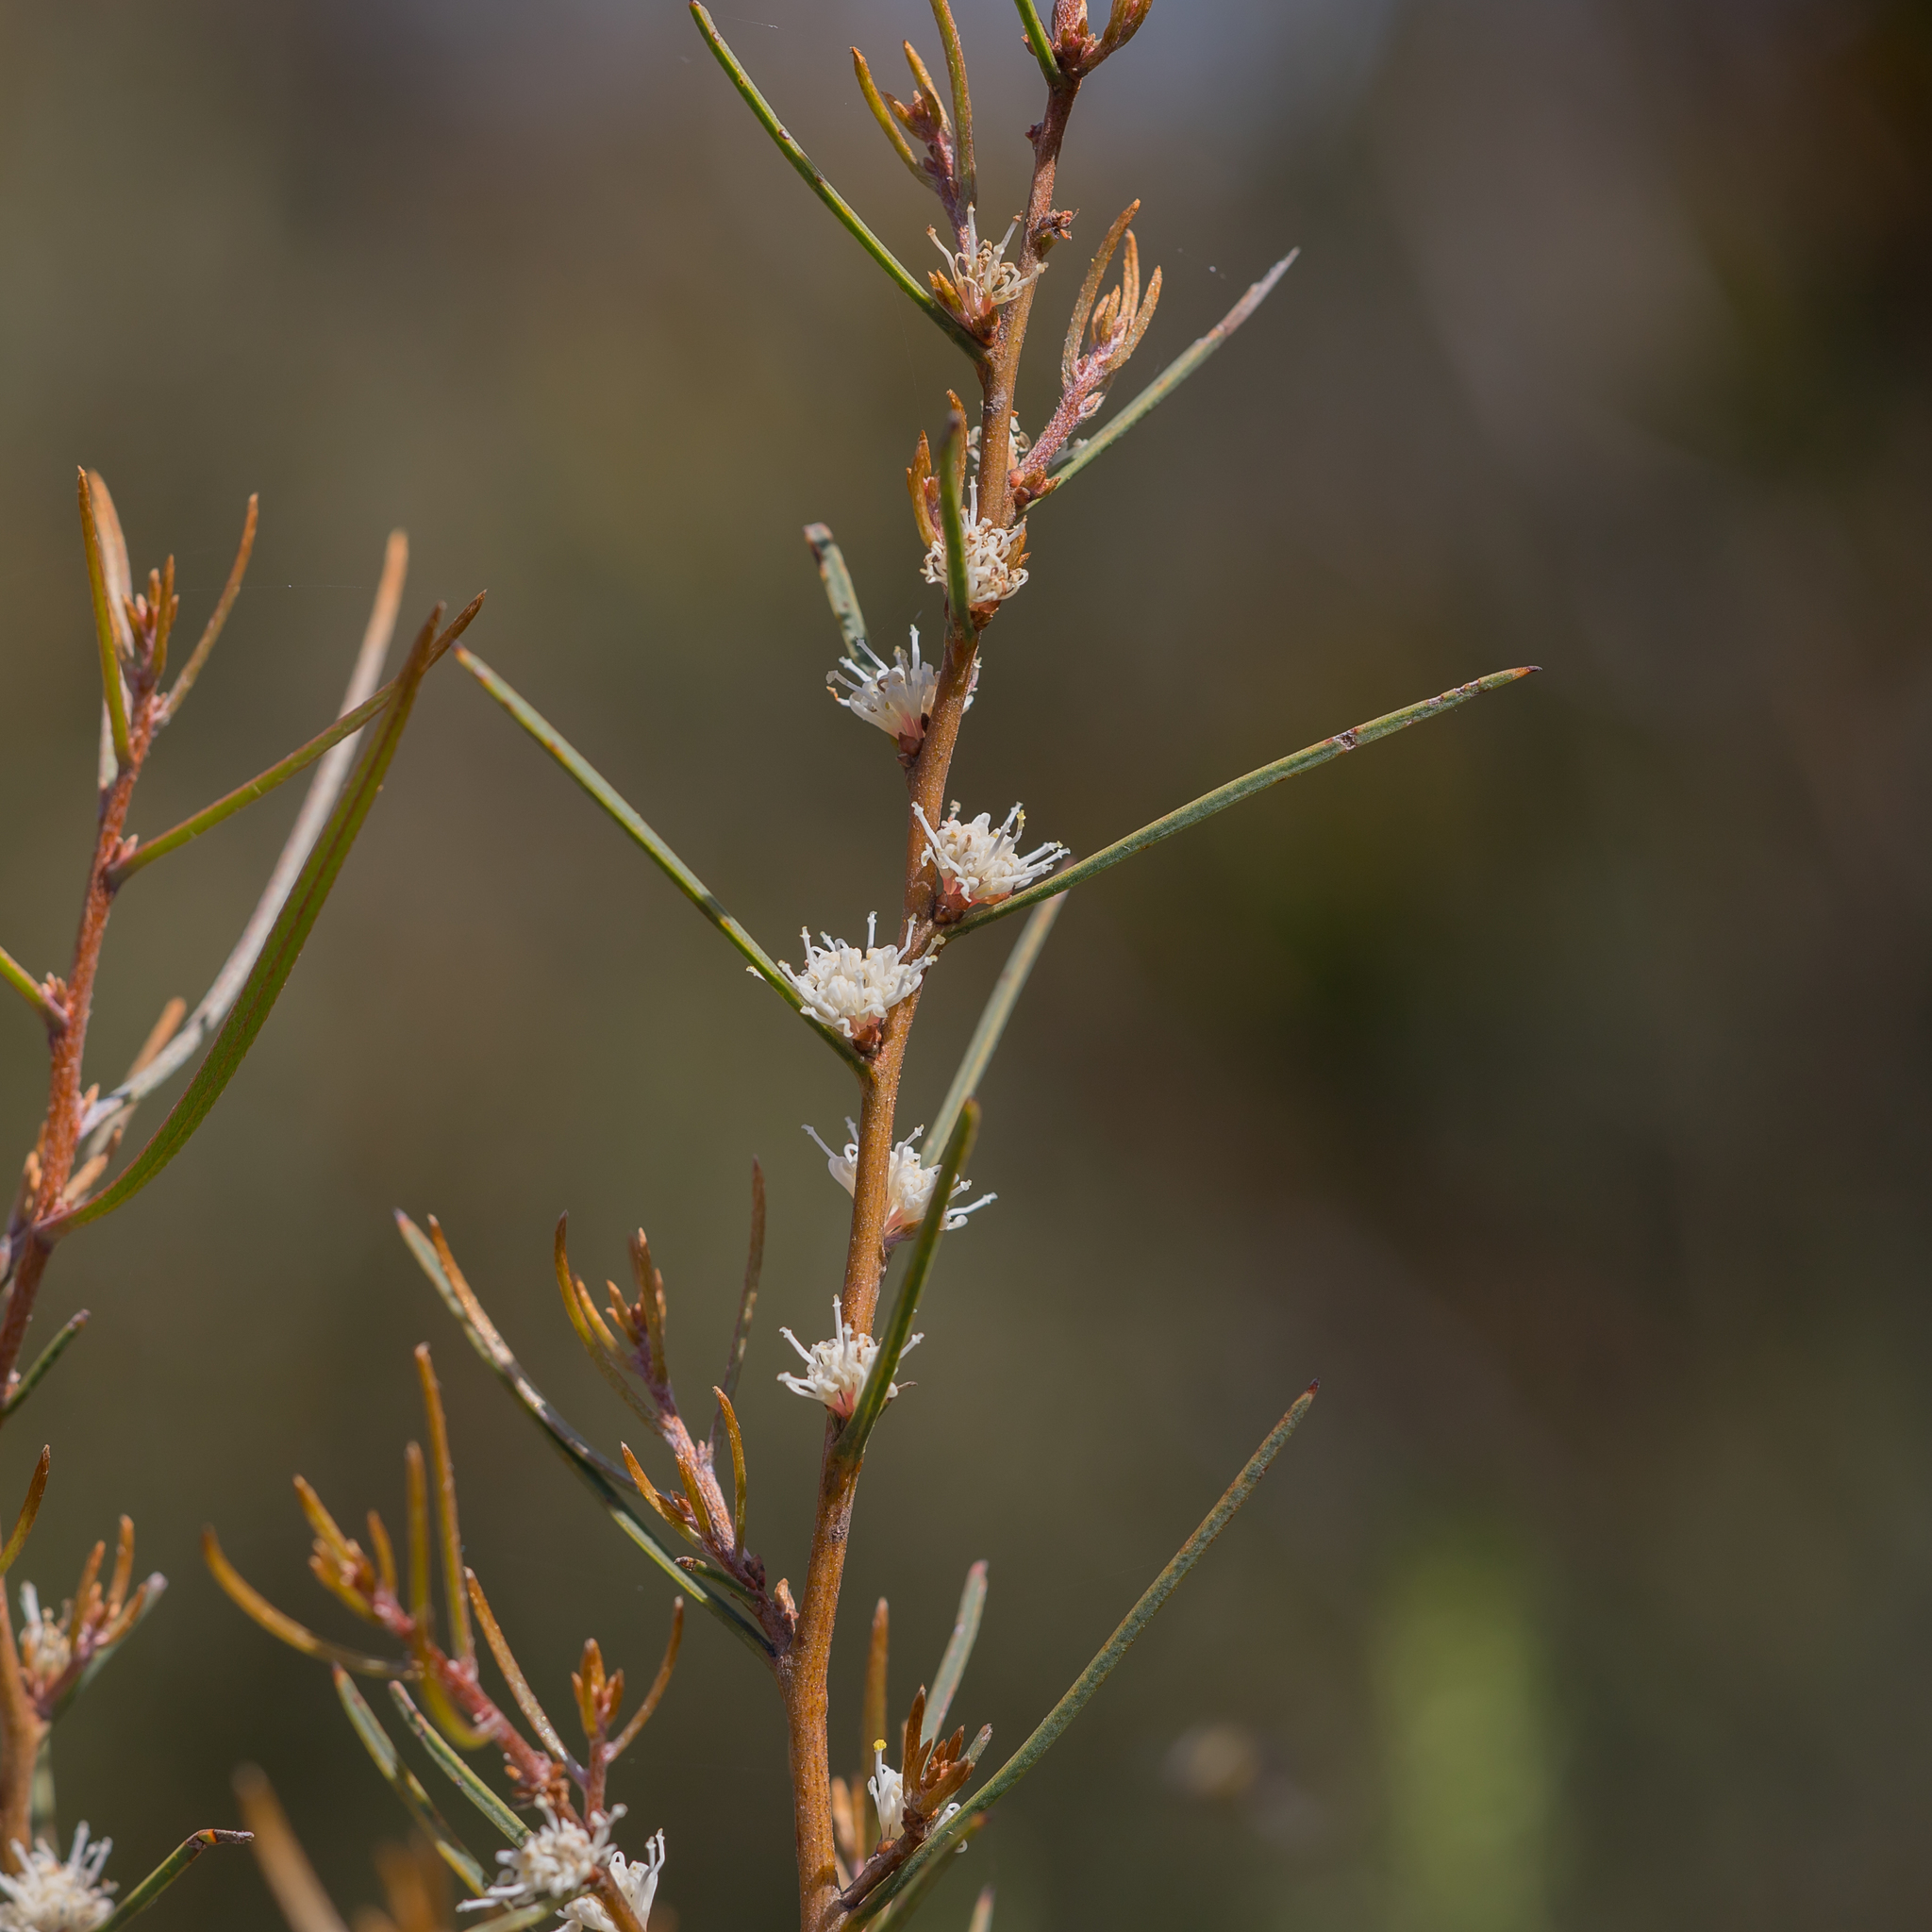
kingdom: Plantae
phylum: Tracheophyta
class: Magnoliopsida
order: Proteales
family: Proteaceae
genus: Hakea
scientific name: Hakea carinata
